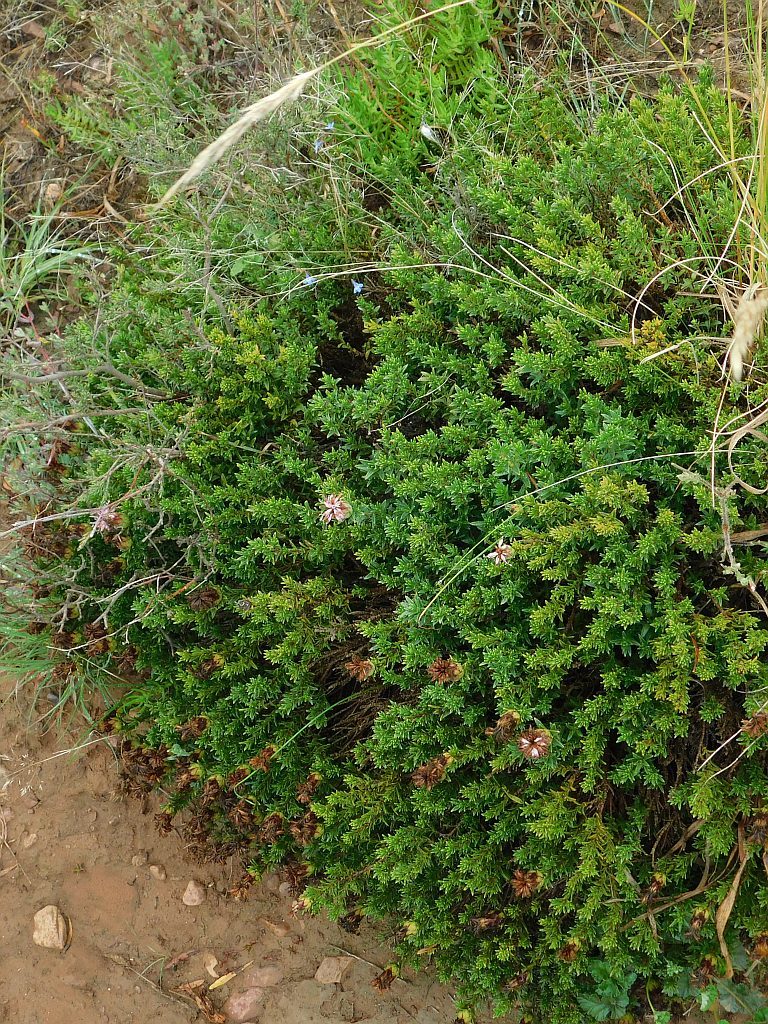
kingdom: Plantae
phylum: Tracheophyta
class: Magnoliopsida
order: Asterales
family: Asteraceae
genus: Pteronia
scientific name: Pteronia hirsuta
